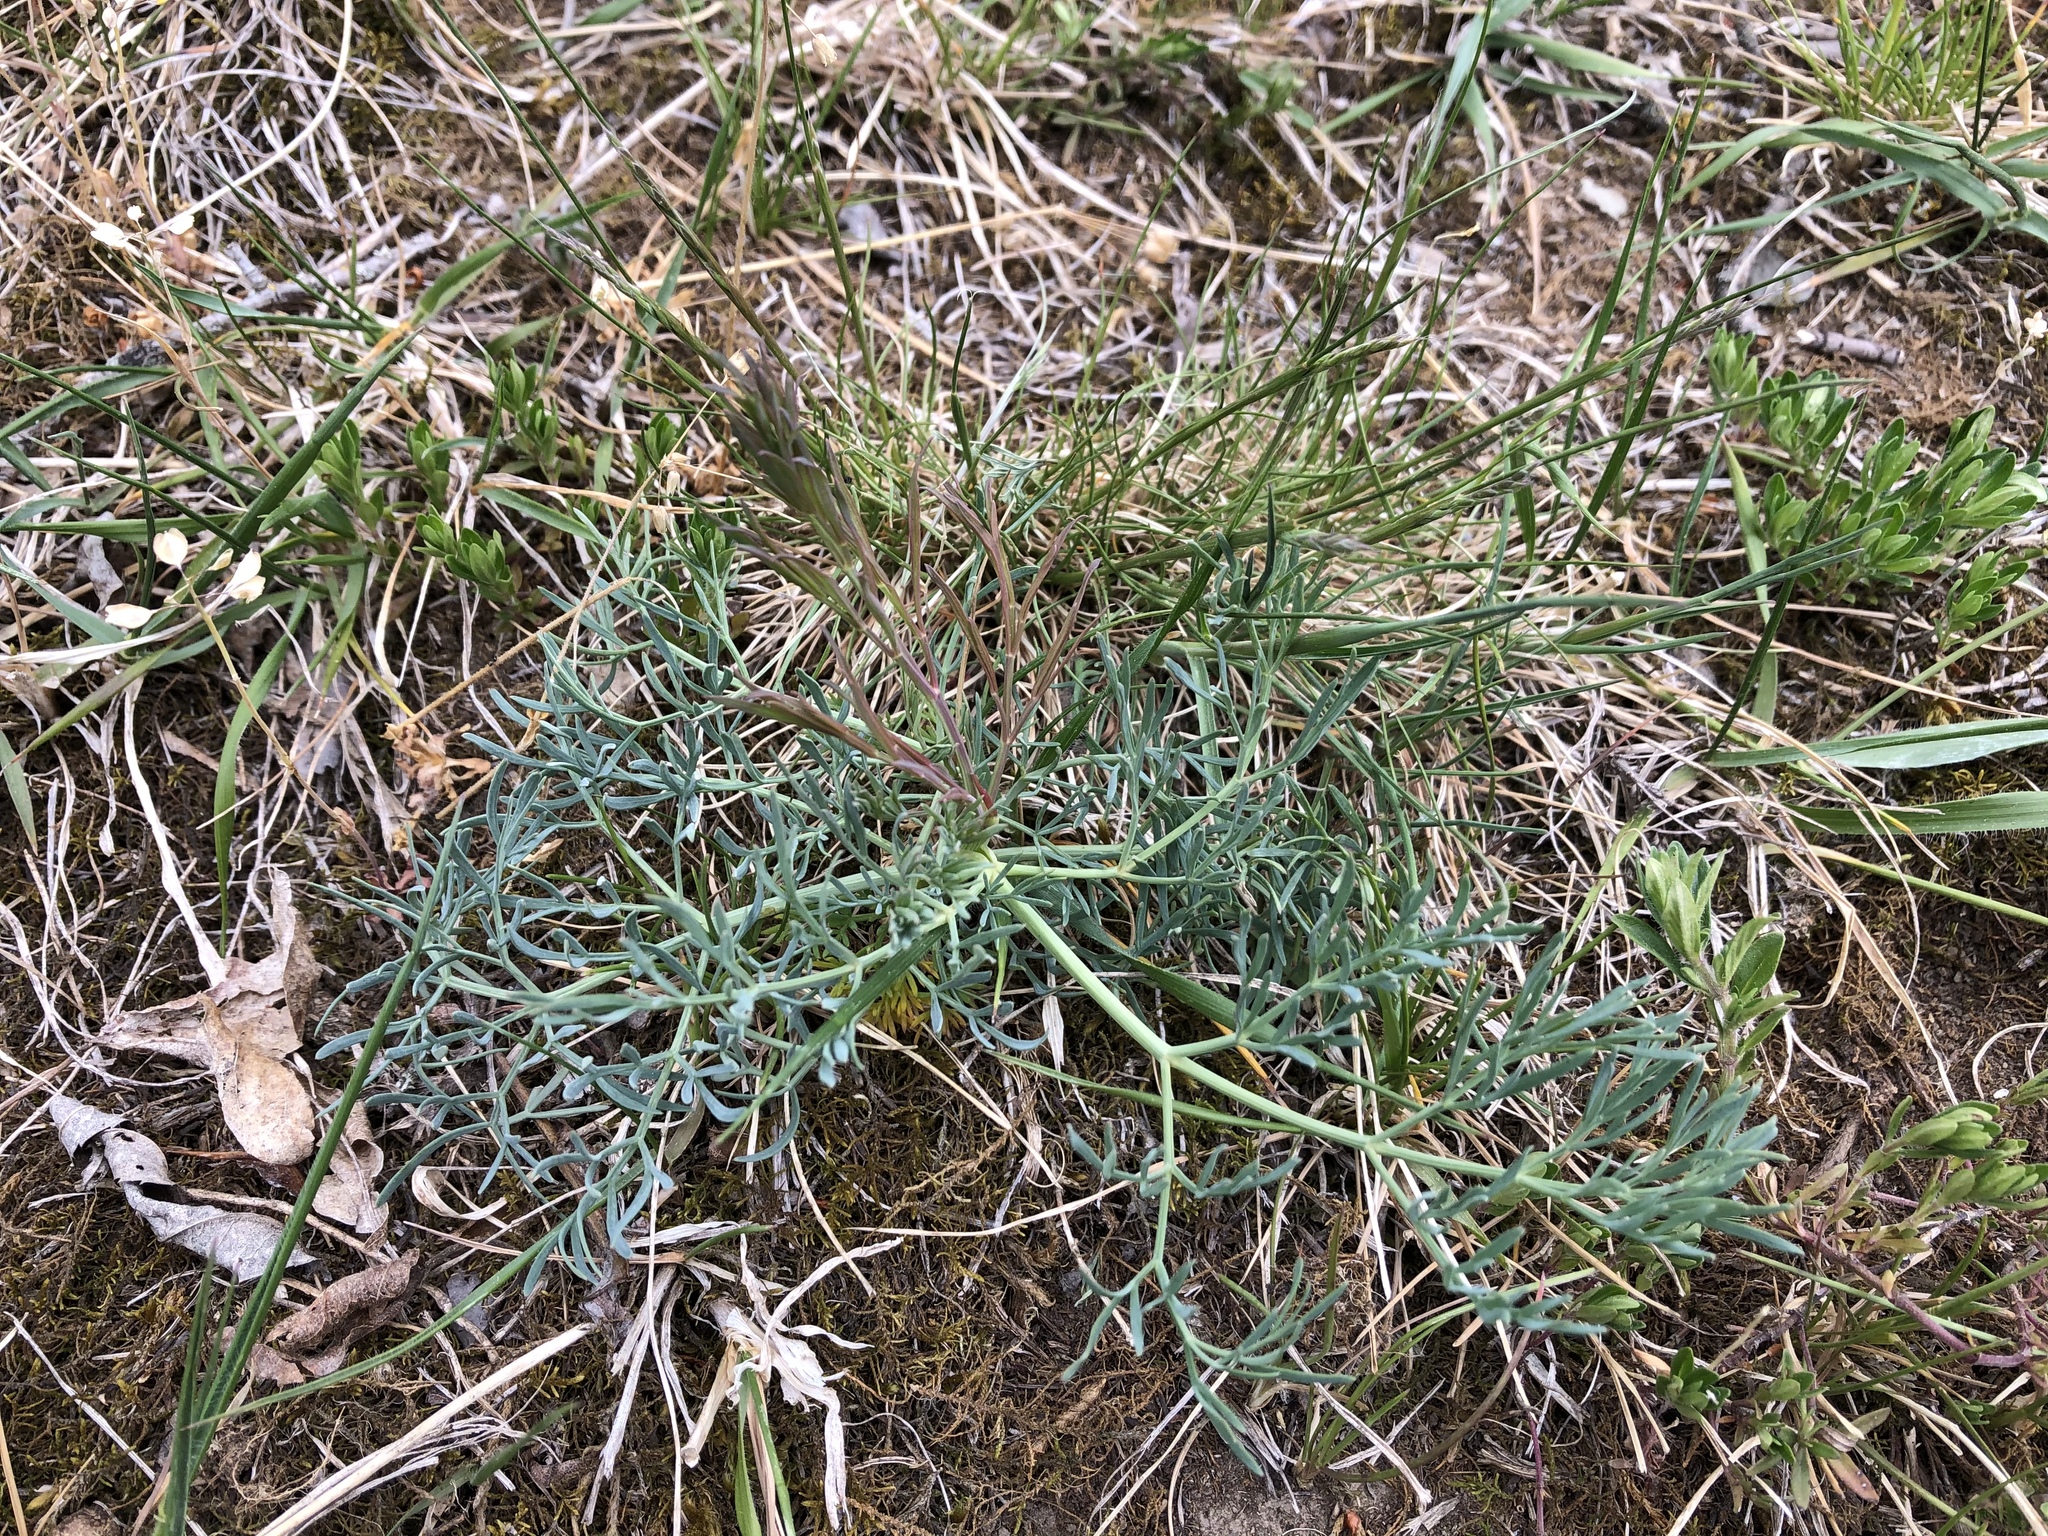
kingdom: Plantae
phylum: Tracheophyta
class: Magnoliopsida
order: Apiales
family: Apiaceae
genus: Seseli
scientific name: Seseli osseum
